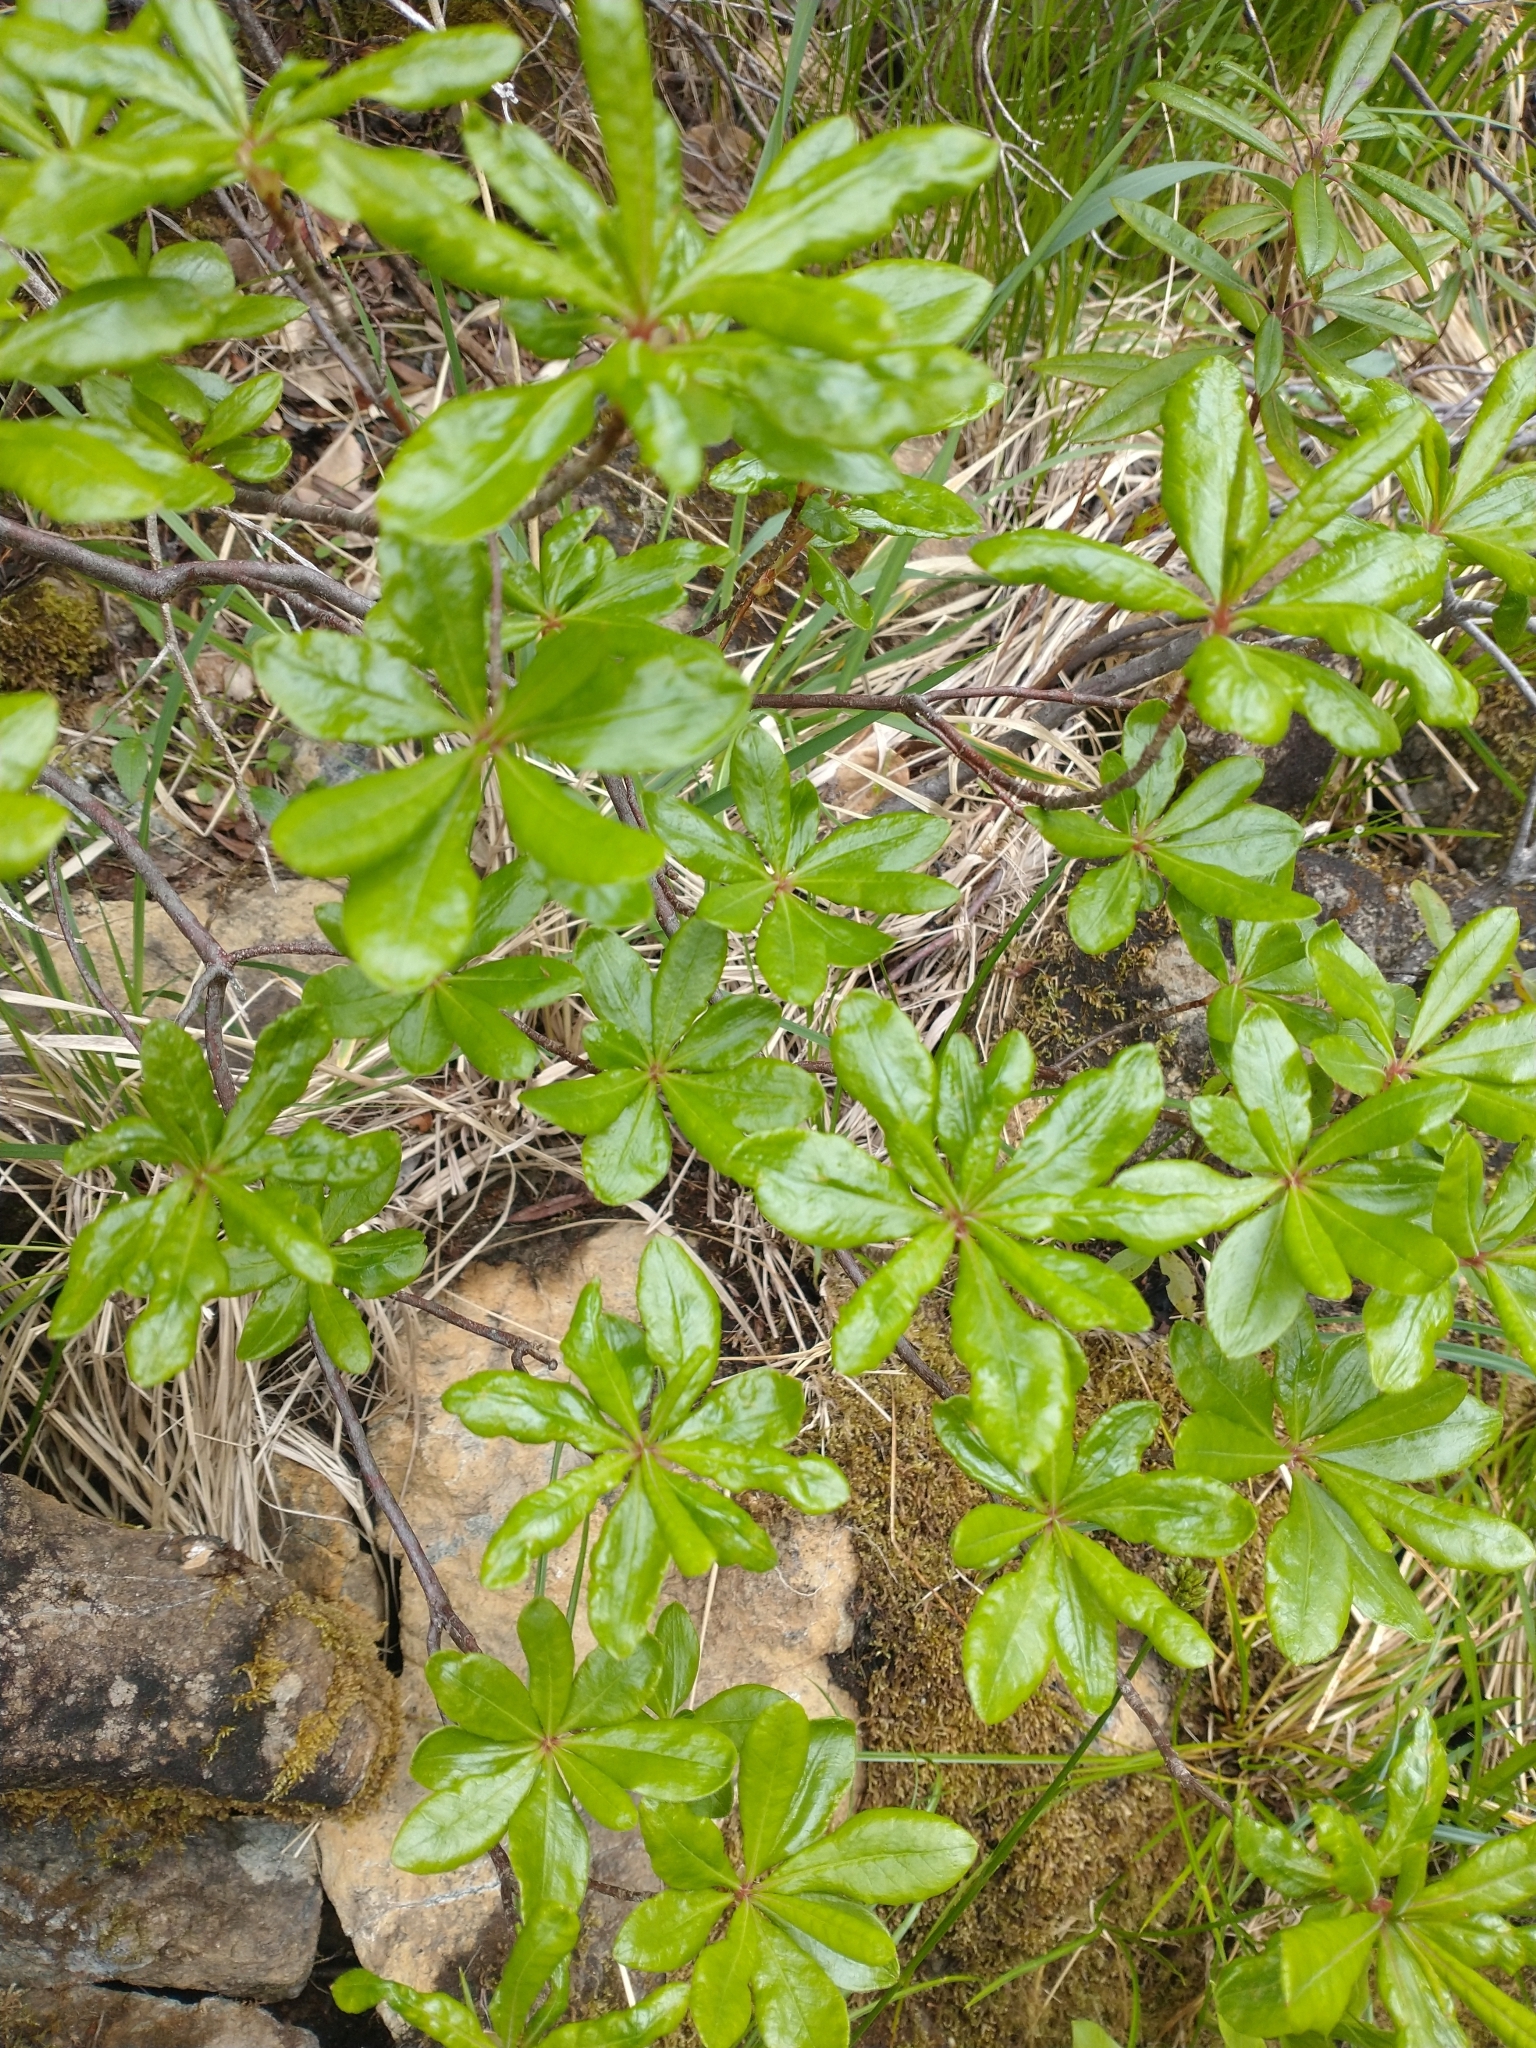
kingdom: Plantae
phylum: Tracheophyta
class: Magnoliopsida
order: Ericales
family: Ericaceae
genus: Rhododendron
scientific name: Rhododendron occidentale
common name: Western azalea
